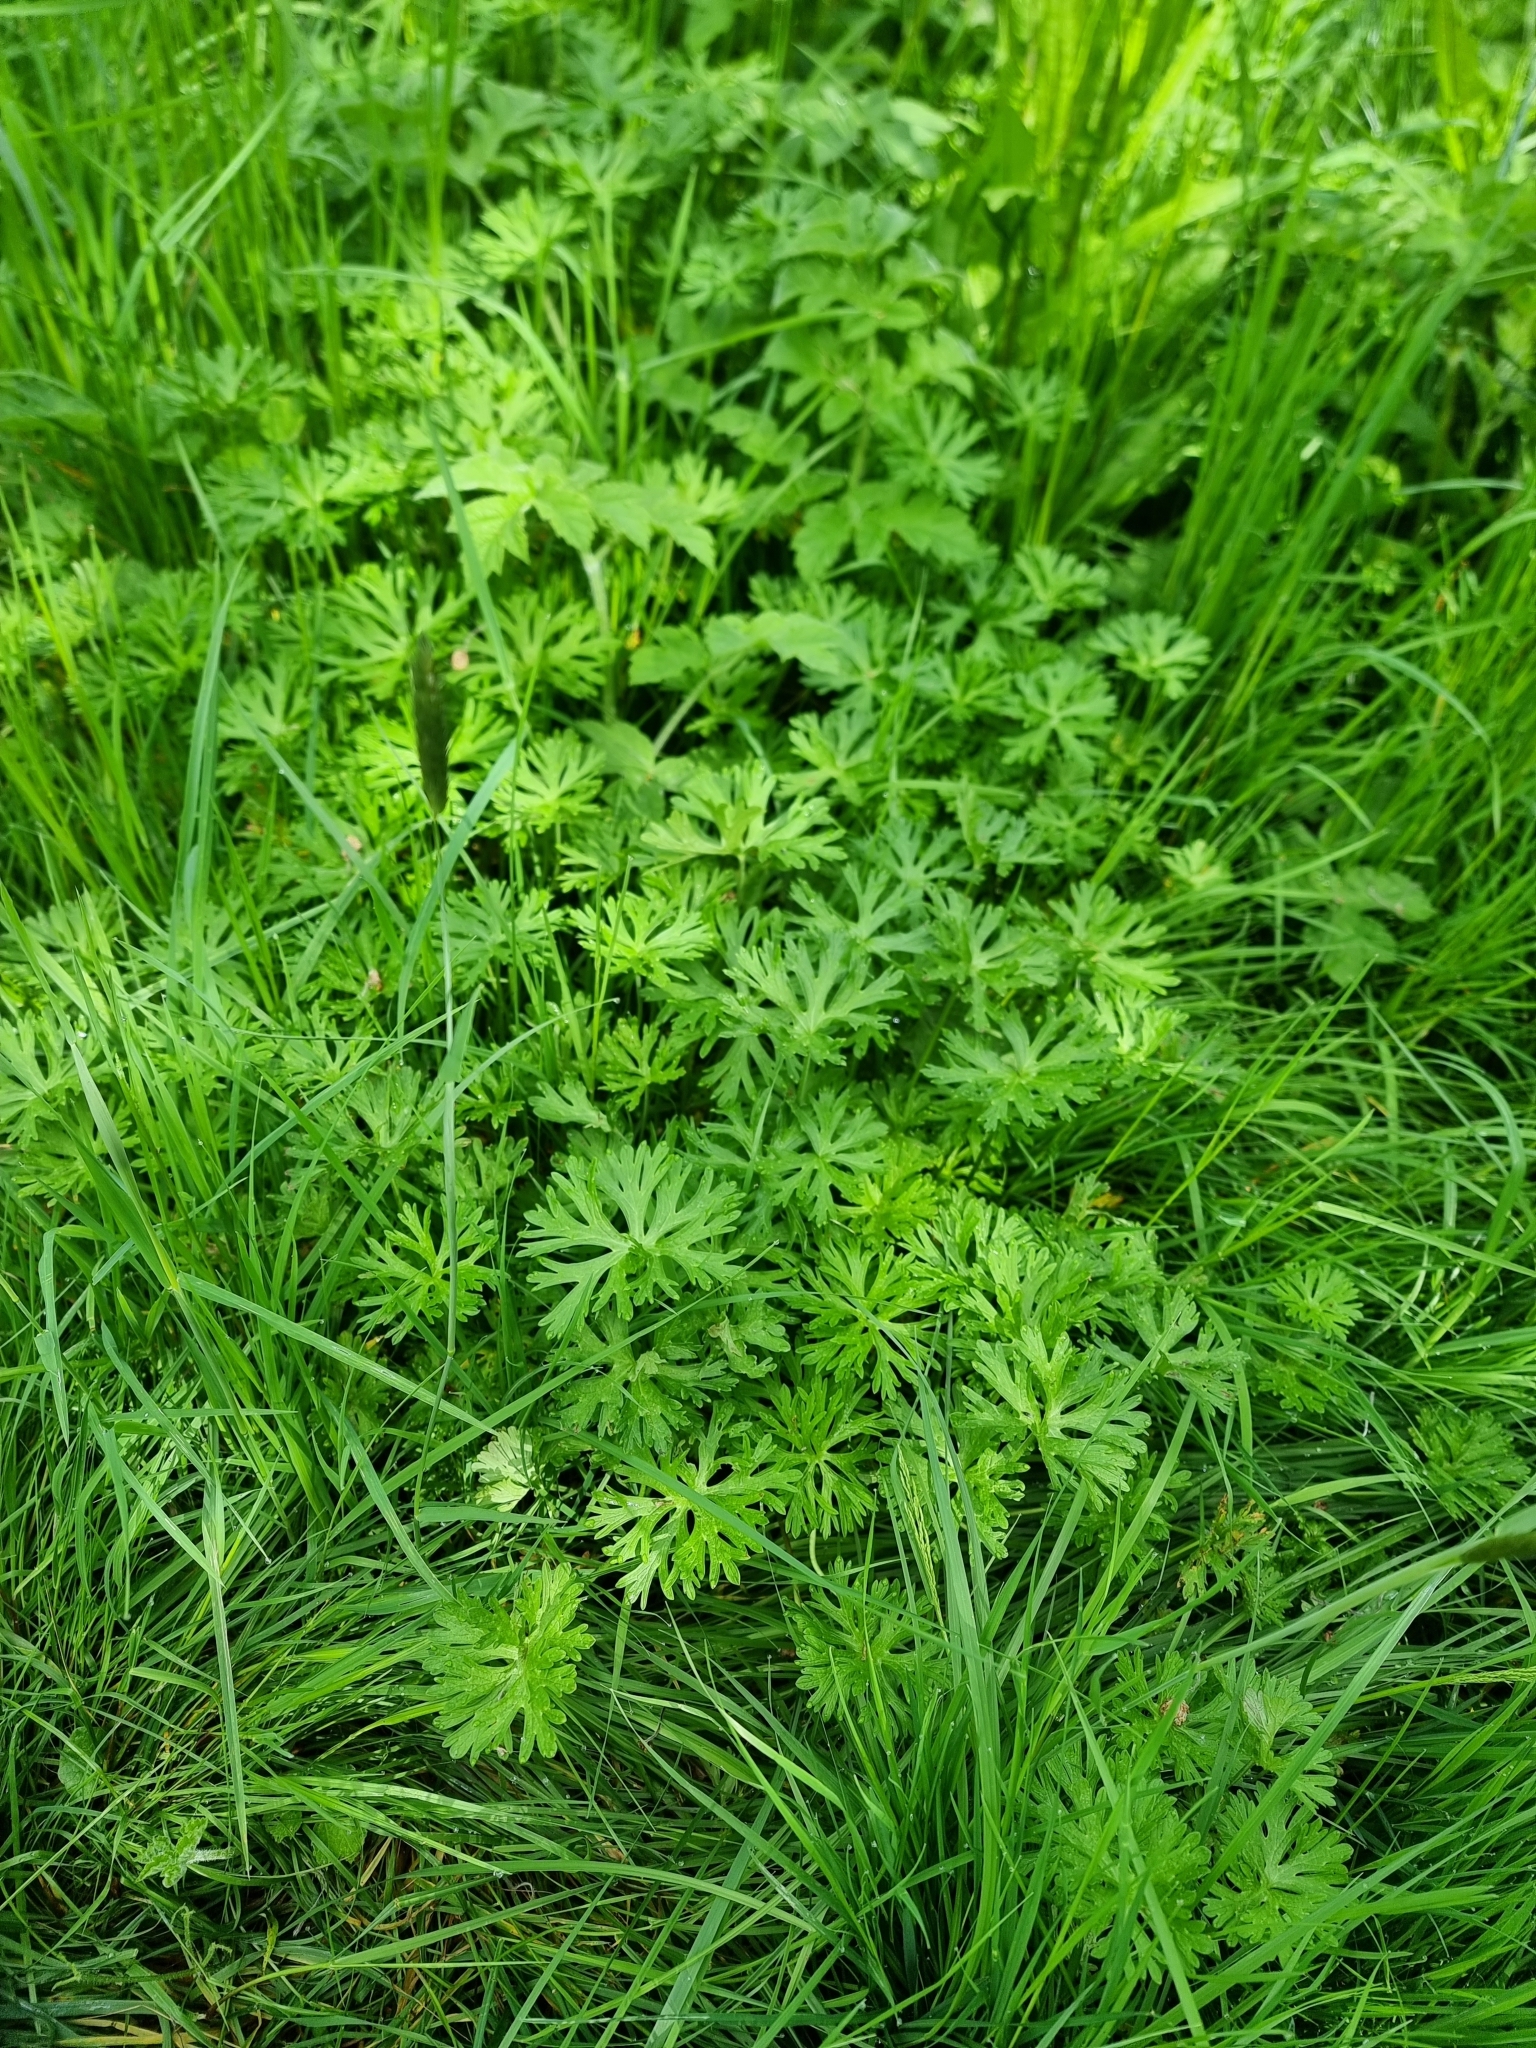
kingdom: Plantae
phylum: Tracheophyta
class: Magnoliopsida
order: Geraniales
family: Geraniaceae
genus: Geranium
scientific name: Geranium dissectum
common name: Cut-leaved crane's-bill
